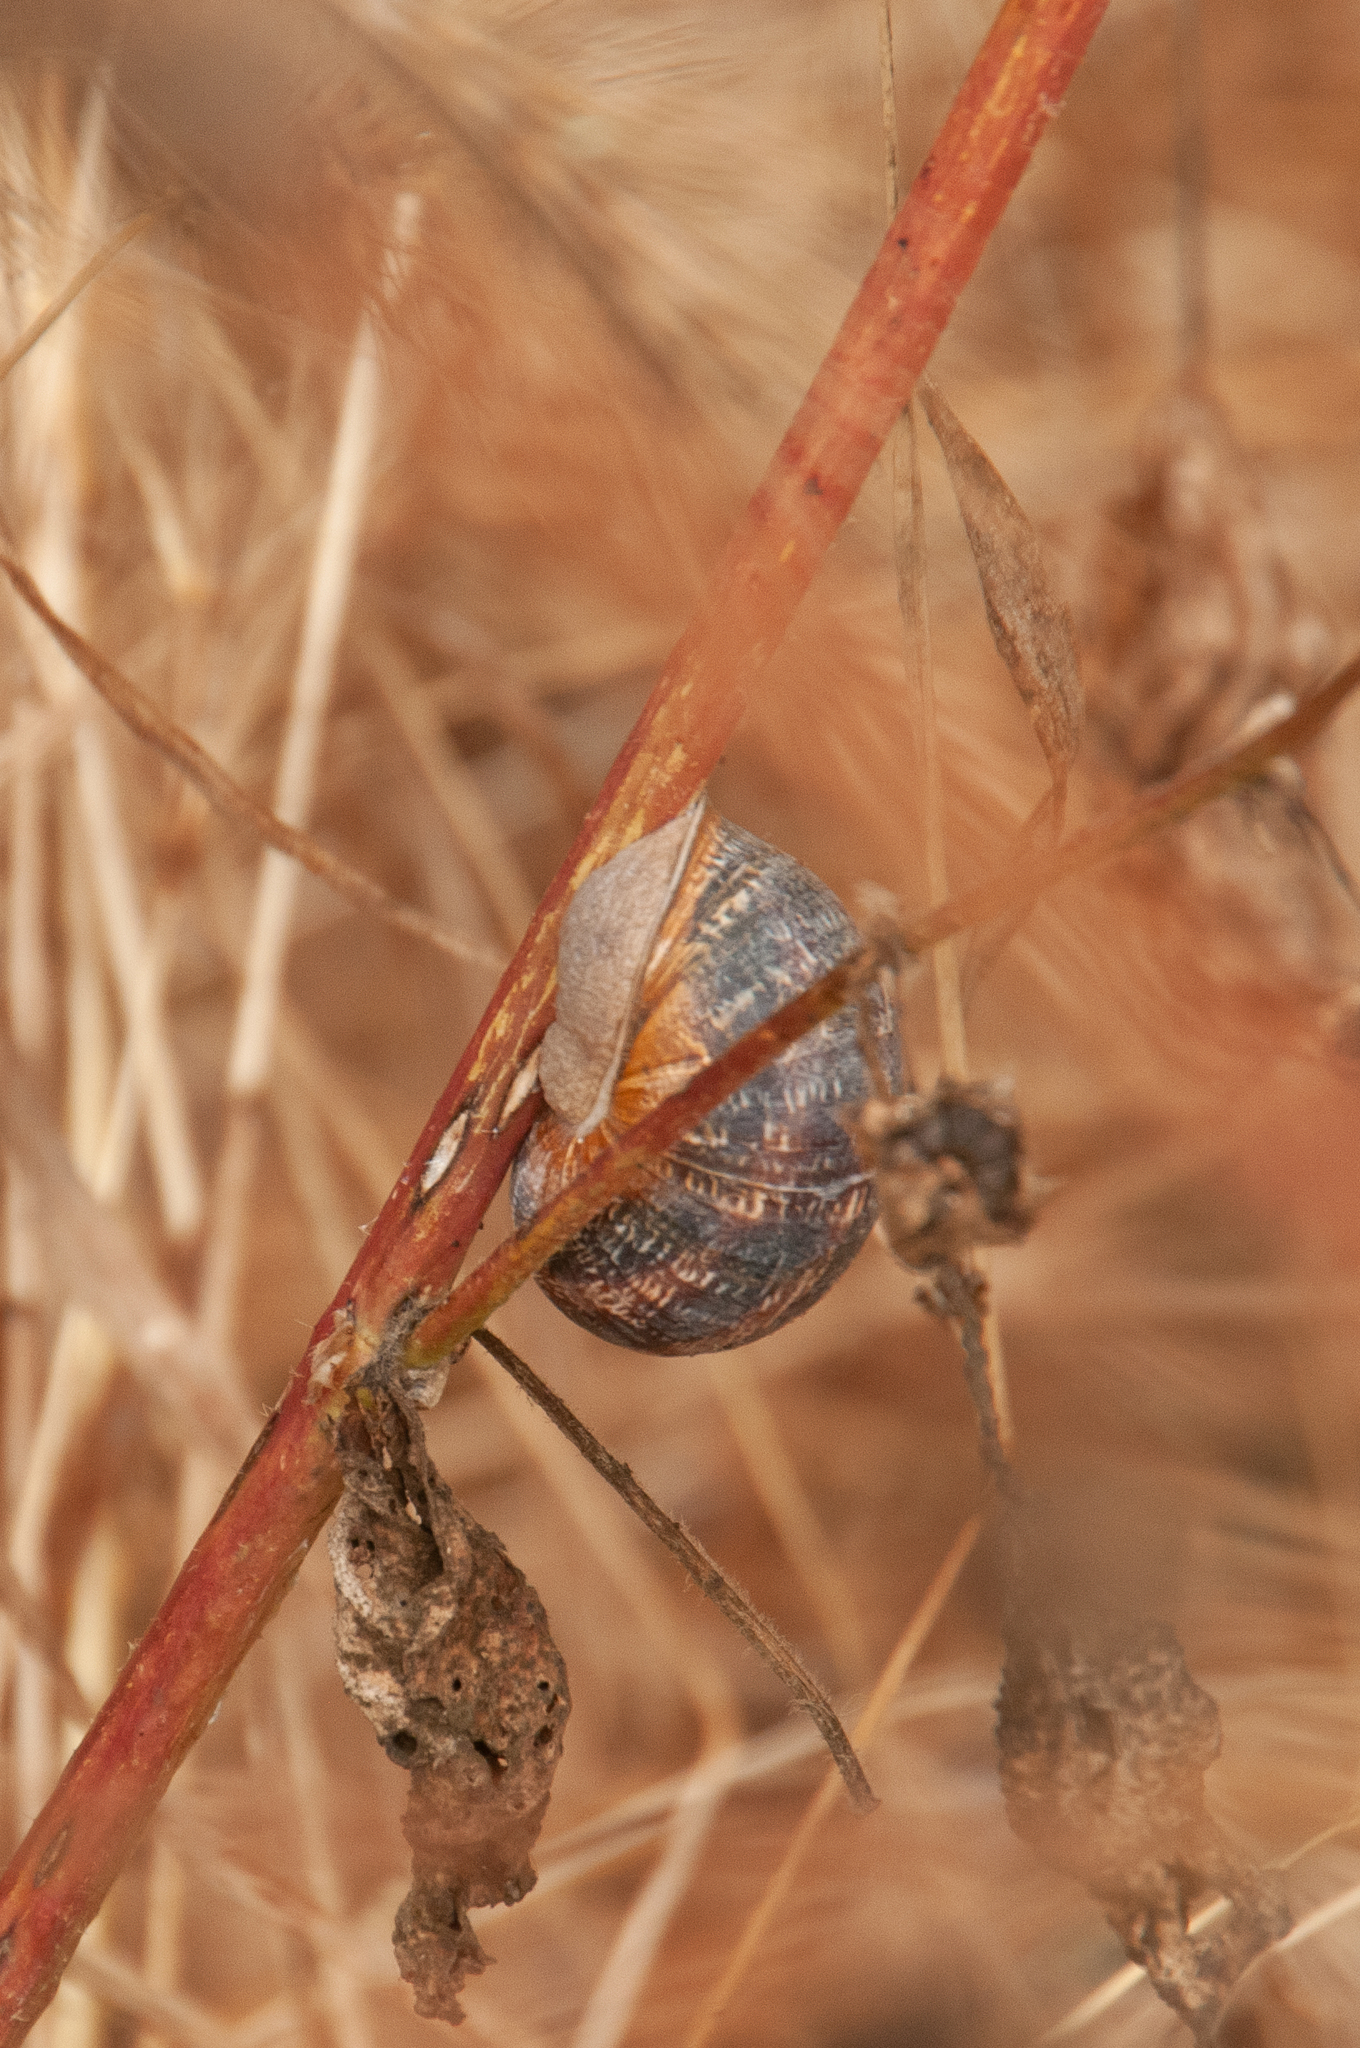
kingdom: Animalia
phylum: Mollusca
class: Gastropoda
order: Stylommatophora
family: Helicidae
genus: Cornu
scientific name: Cornu aspersum
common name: Brown garden snail
